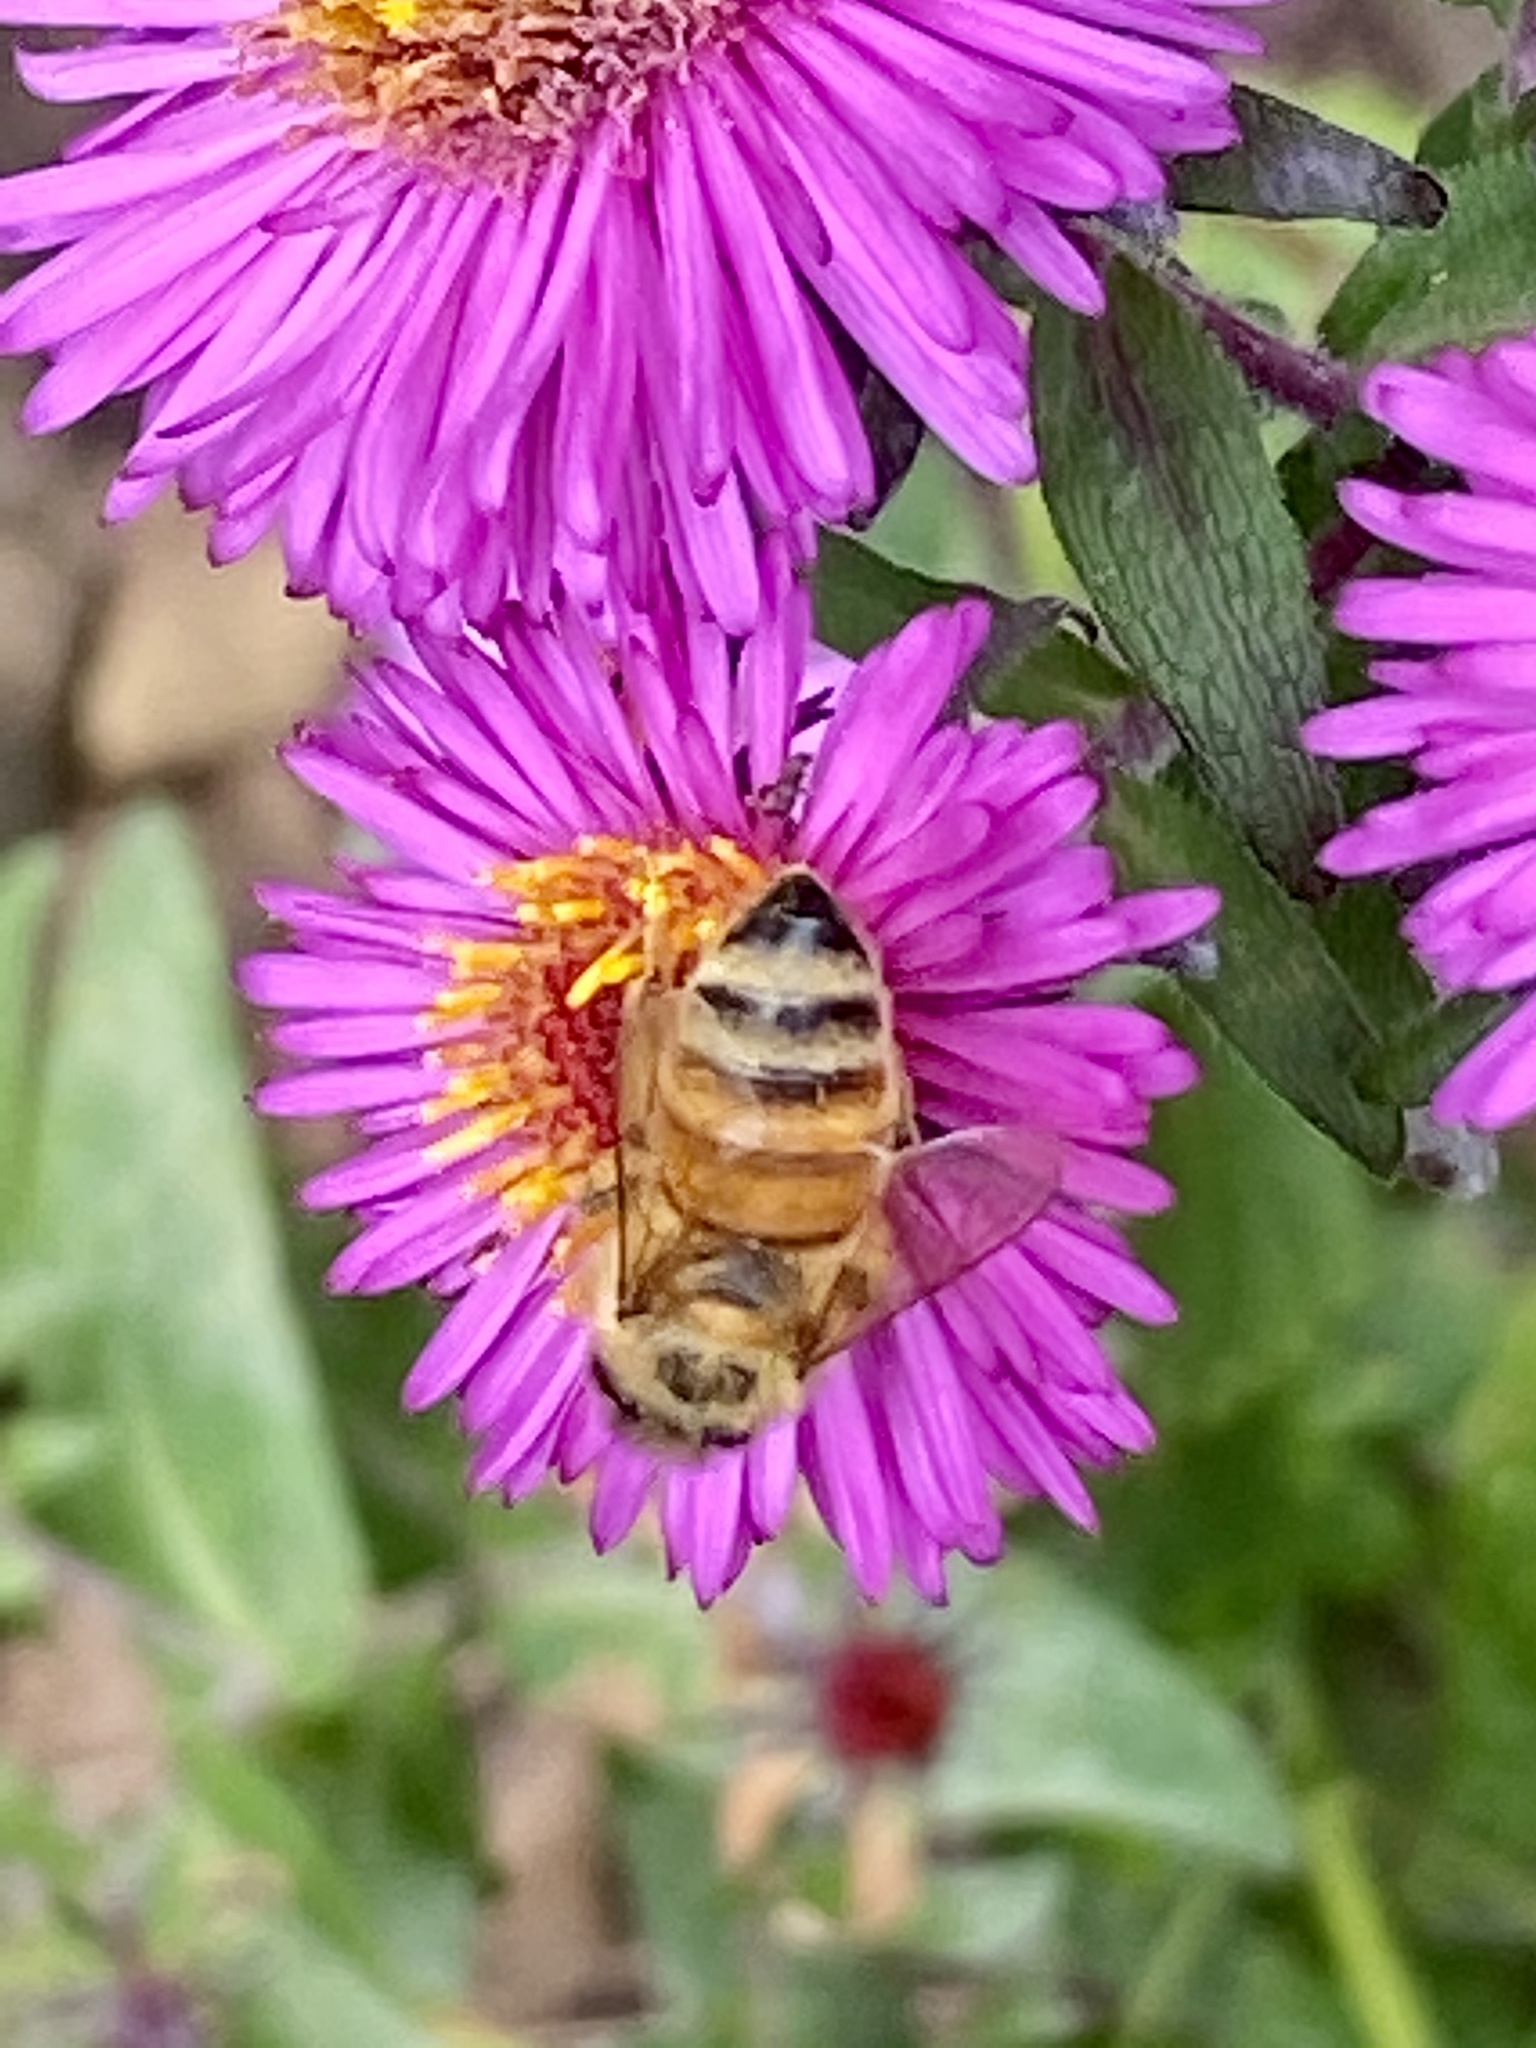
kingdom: Animalia
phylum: Arthropoda
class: Insecta
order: Hymenoptera
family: Apidae
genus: Apis
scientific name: Apis mellifera
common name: Honey bee
